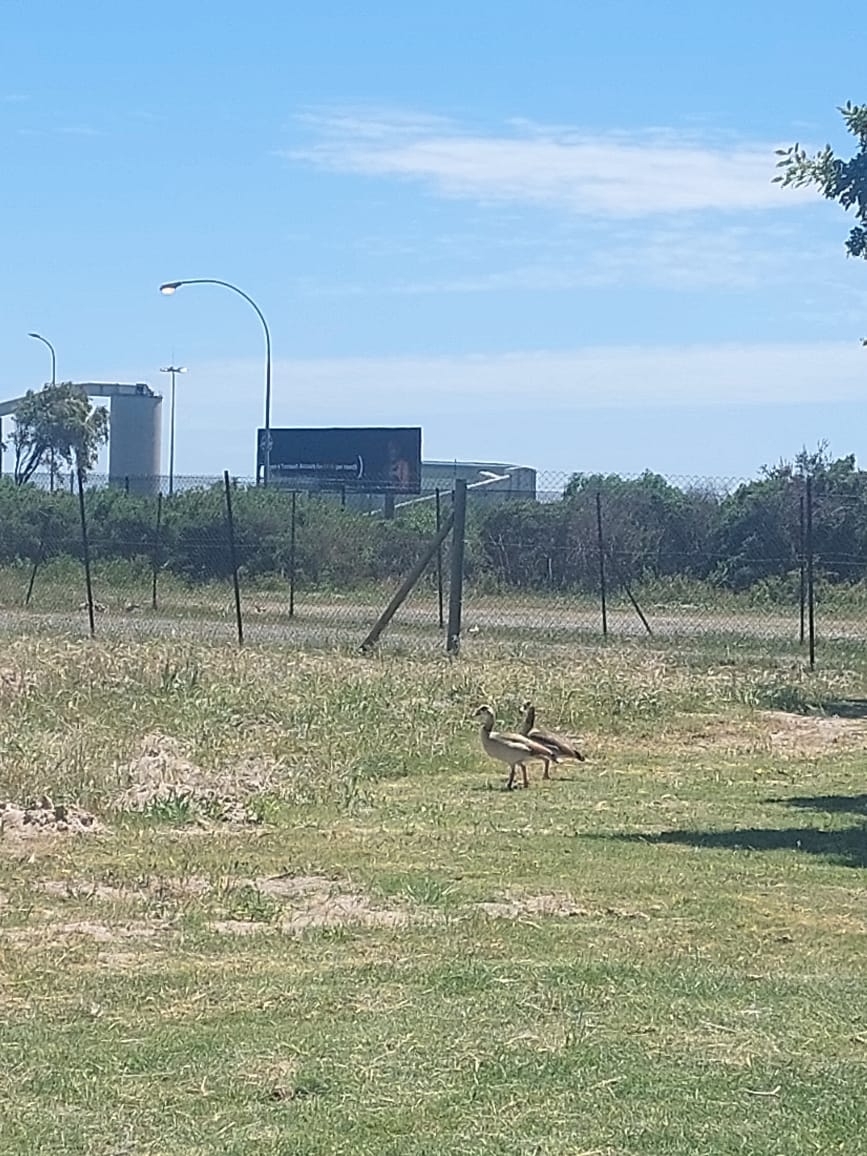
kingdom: Animalia
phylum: Chordata
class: Aves
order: Anseriformes
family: Anatidae
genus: Alopochen
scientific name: Alopochen aegyptiaca
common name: Egyptian goose
